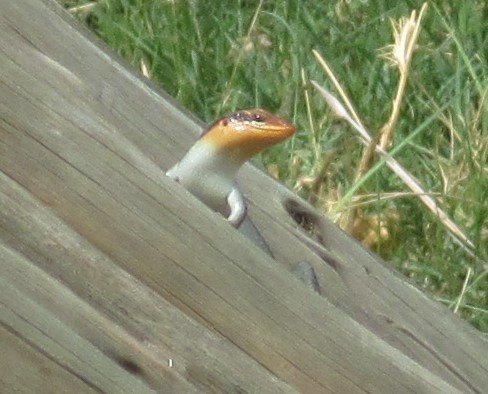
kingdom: Animalia
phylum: Chordata
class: Squamata
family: Scincidae
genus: Trachylepis
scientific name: Trachylepis wahlbergii
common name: Wahlberg’s striped skink
